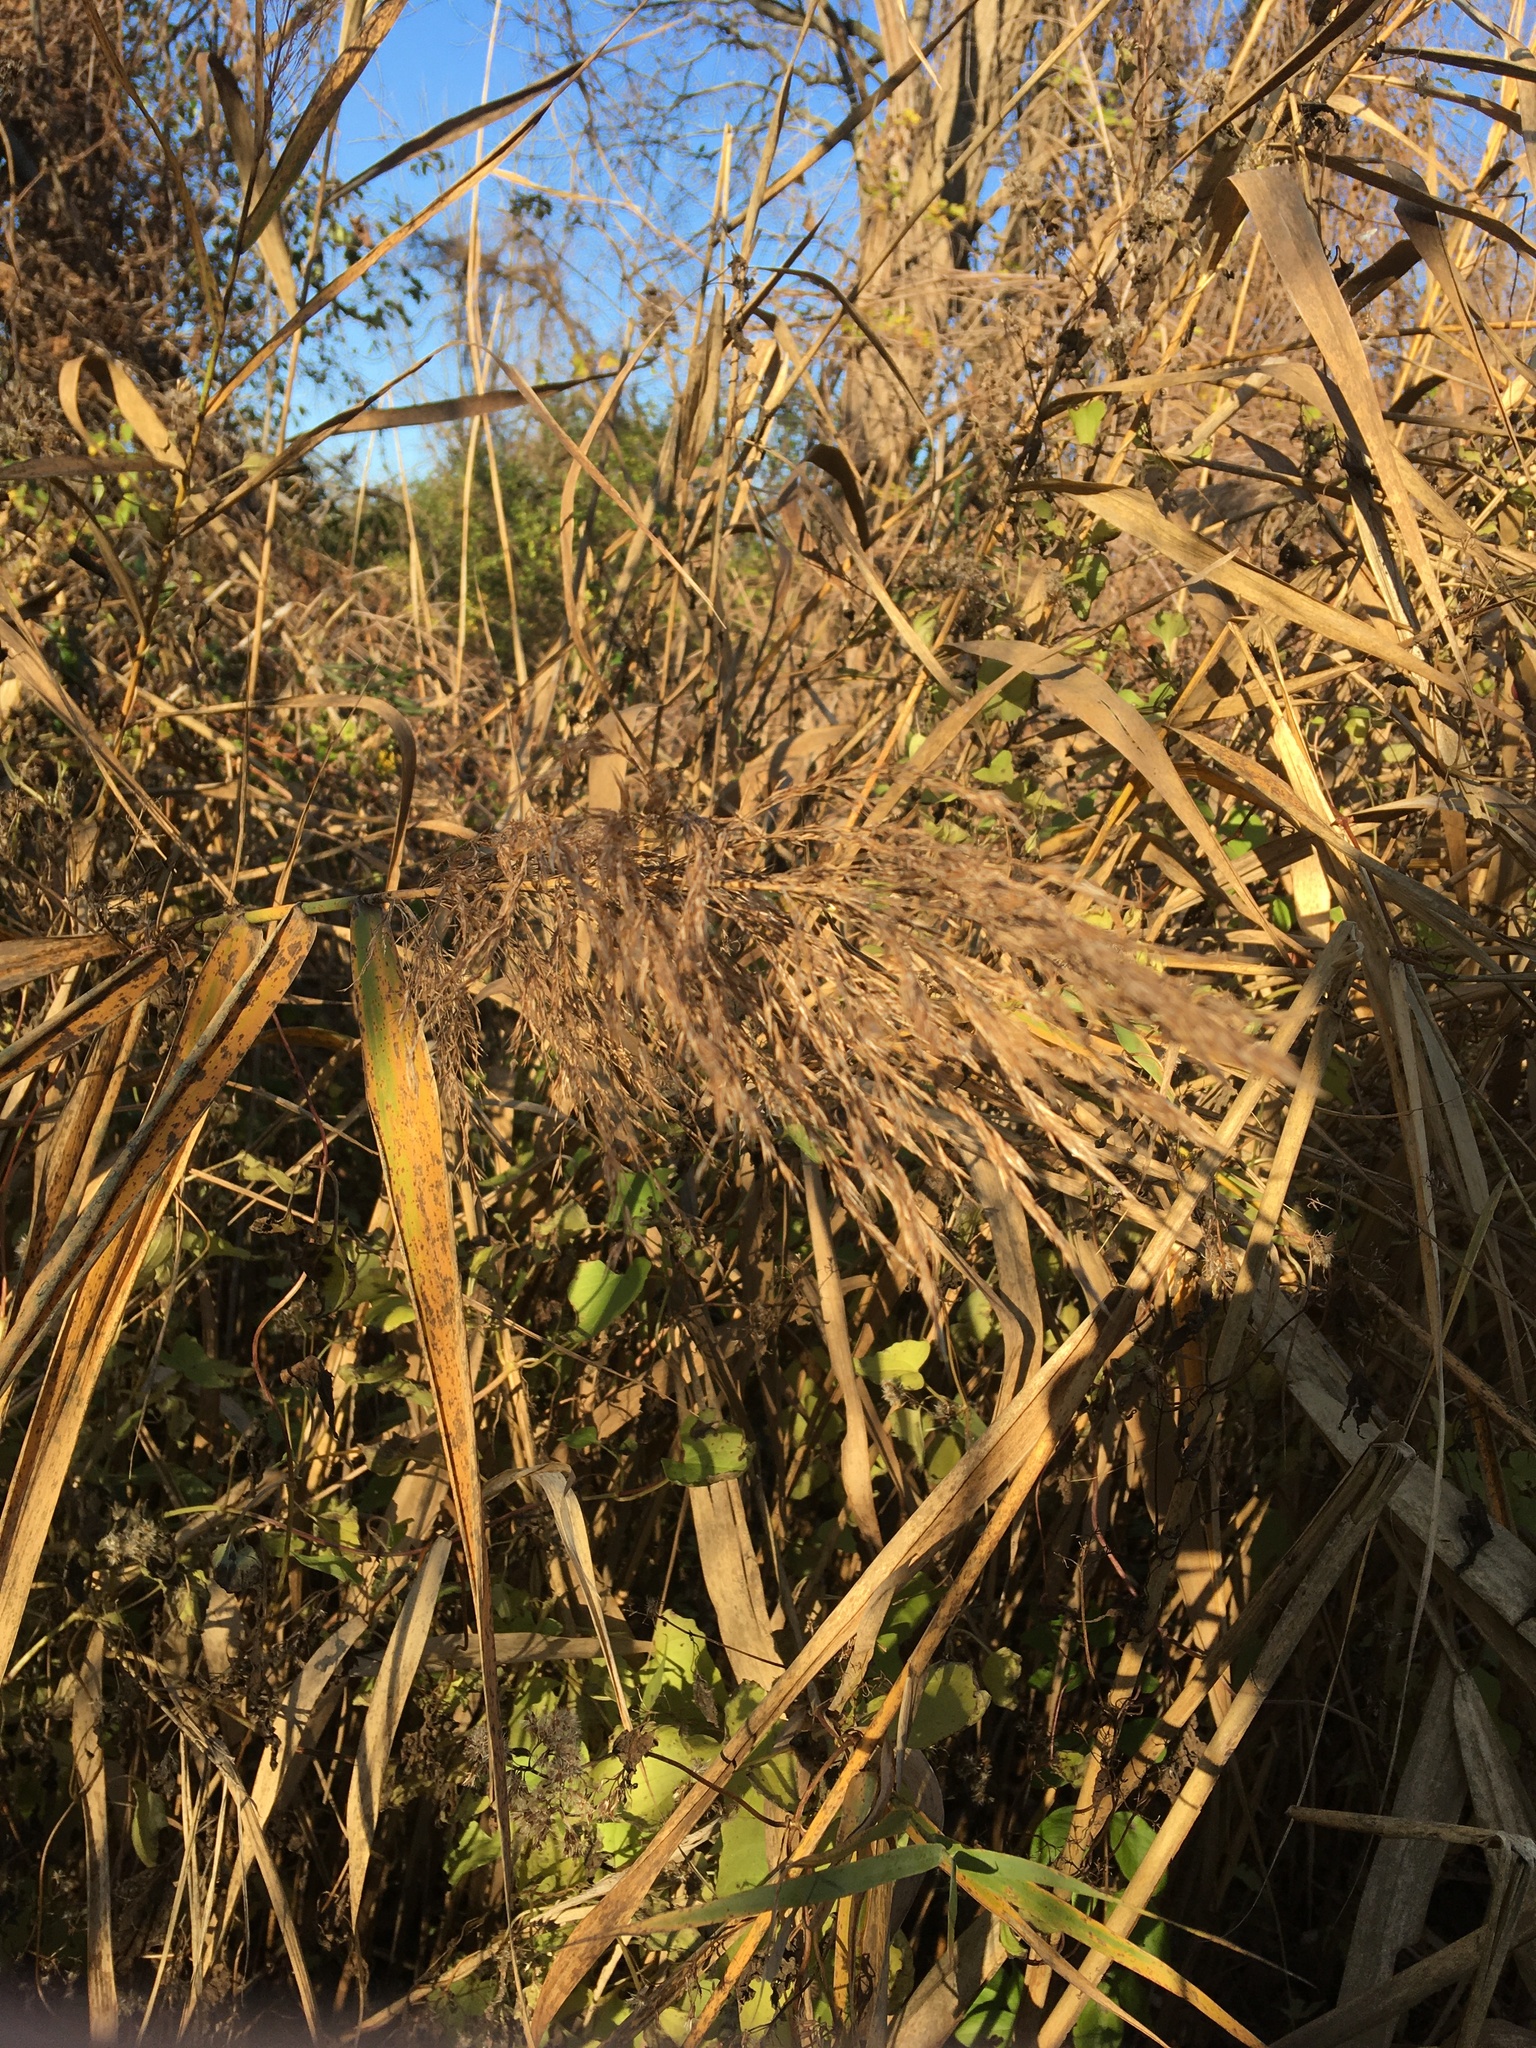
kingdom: Plantae
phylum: Tracheophyta
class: Liliopsida
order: Poales
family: Poaceae
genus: Phragmites
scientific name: Phragmites australis
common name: Common reed
